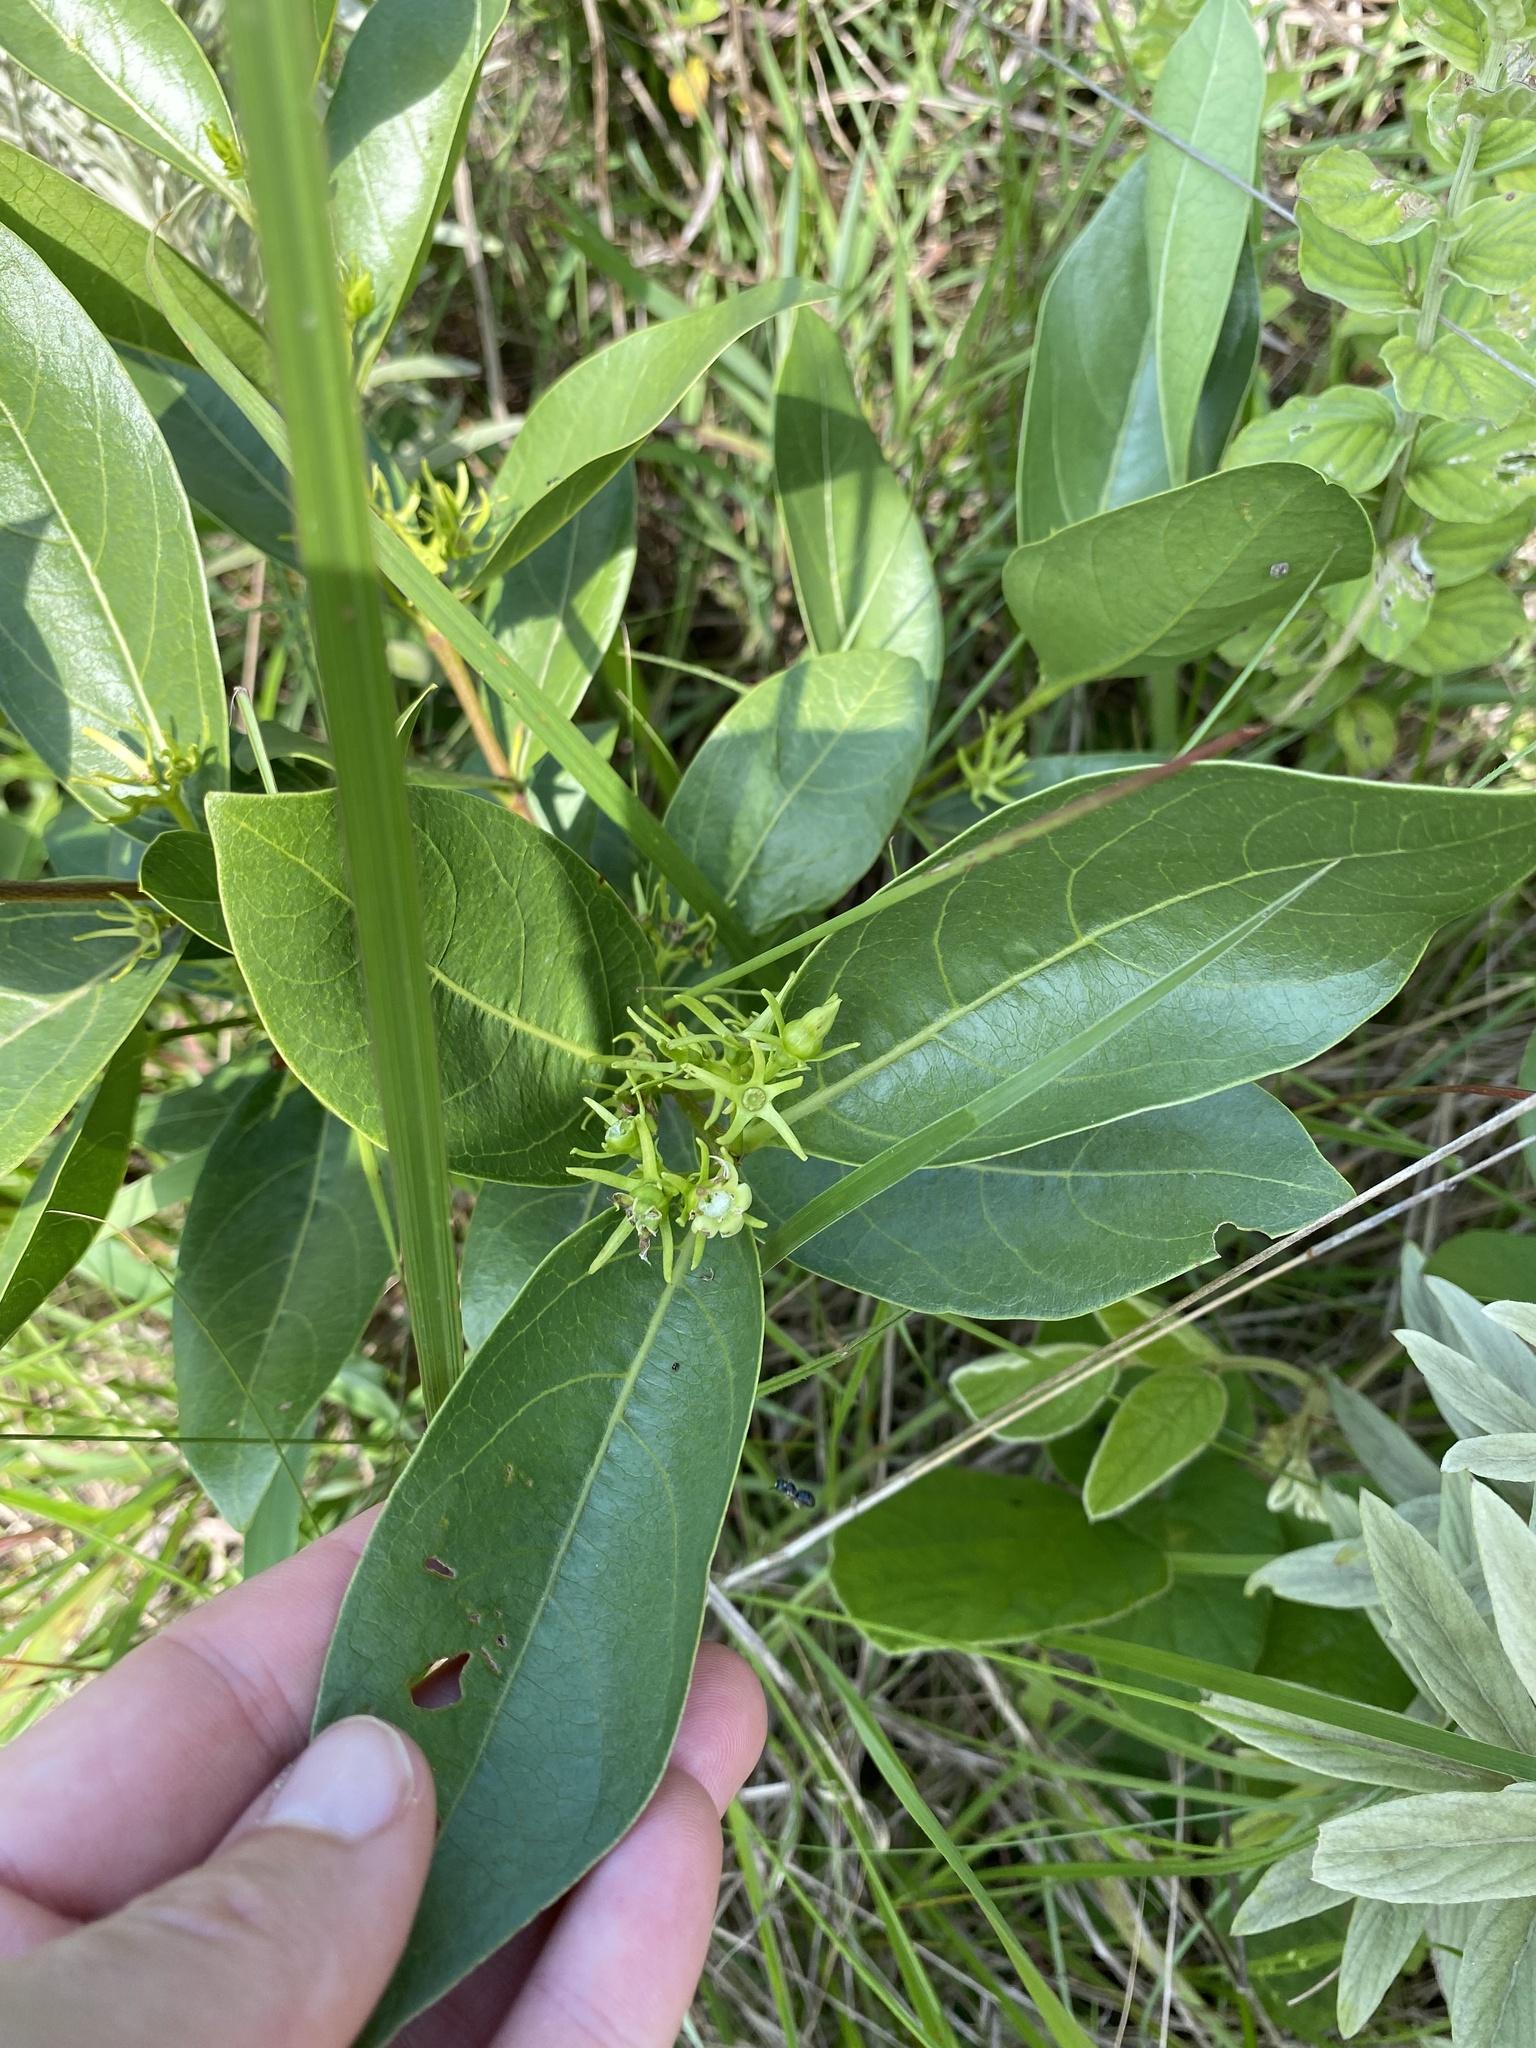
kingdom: Plantae
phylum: Tracheophyta
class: Magnoliopsida
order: Gentianales
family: Rubiaceae
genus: Vangueria
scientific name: Vangueria venosa
